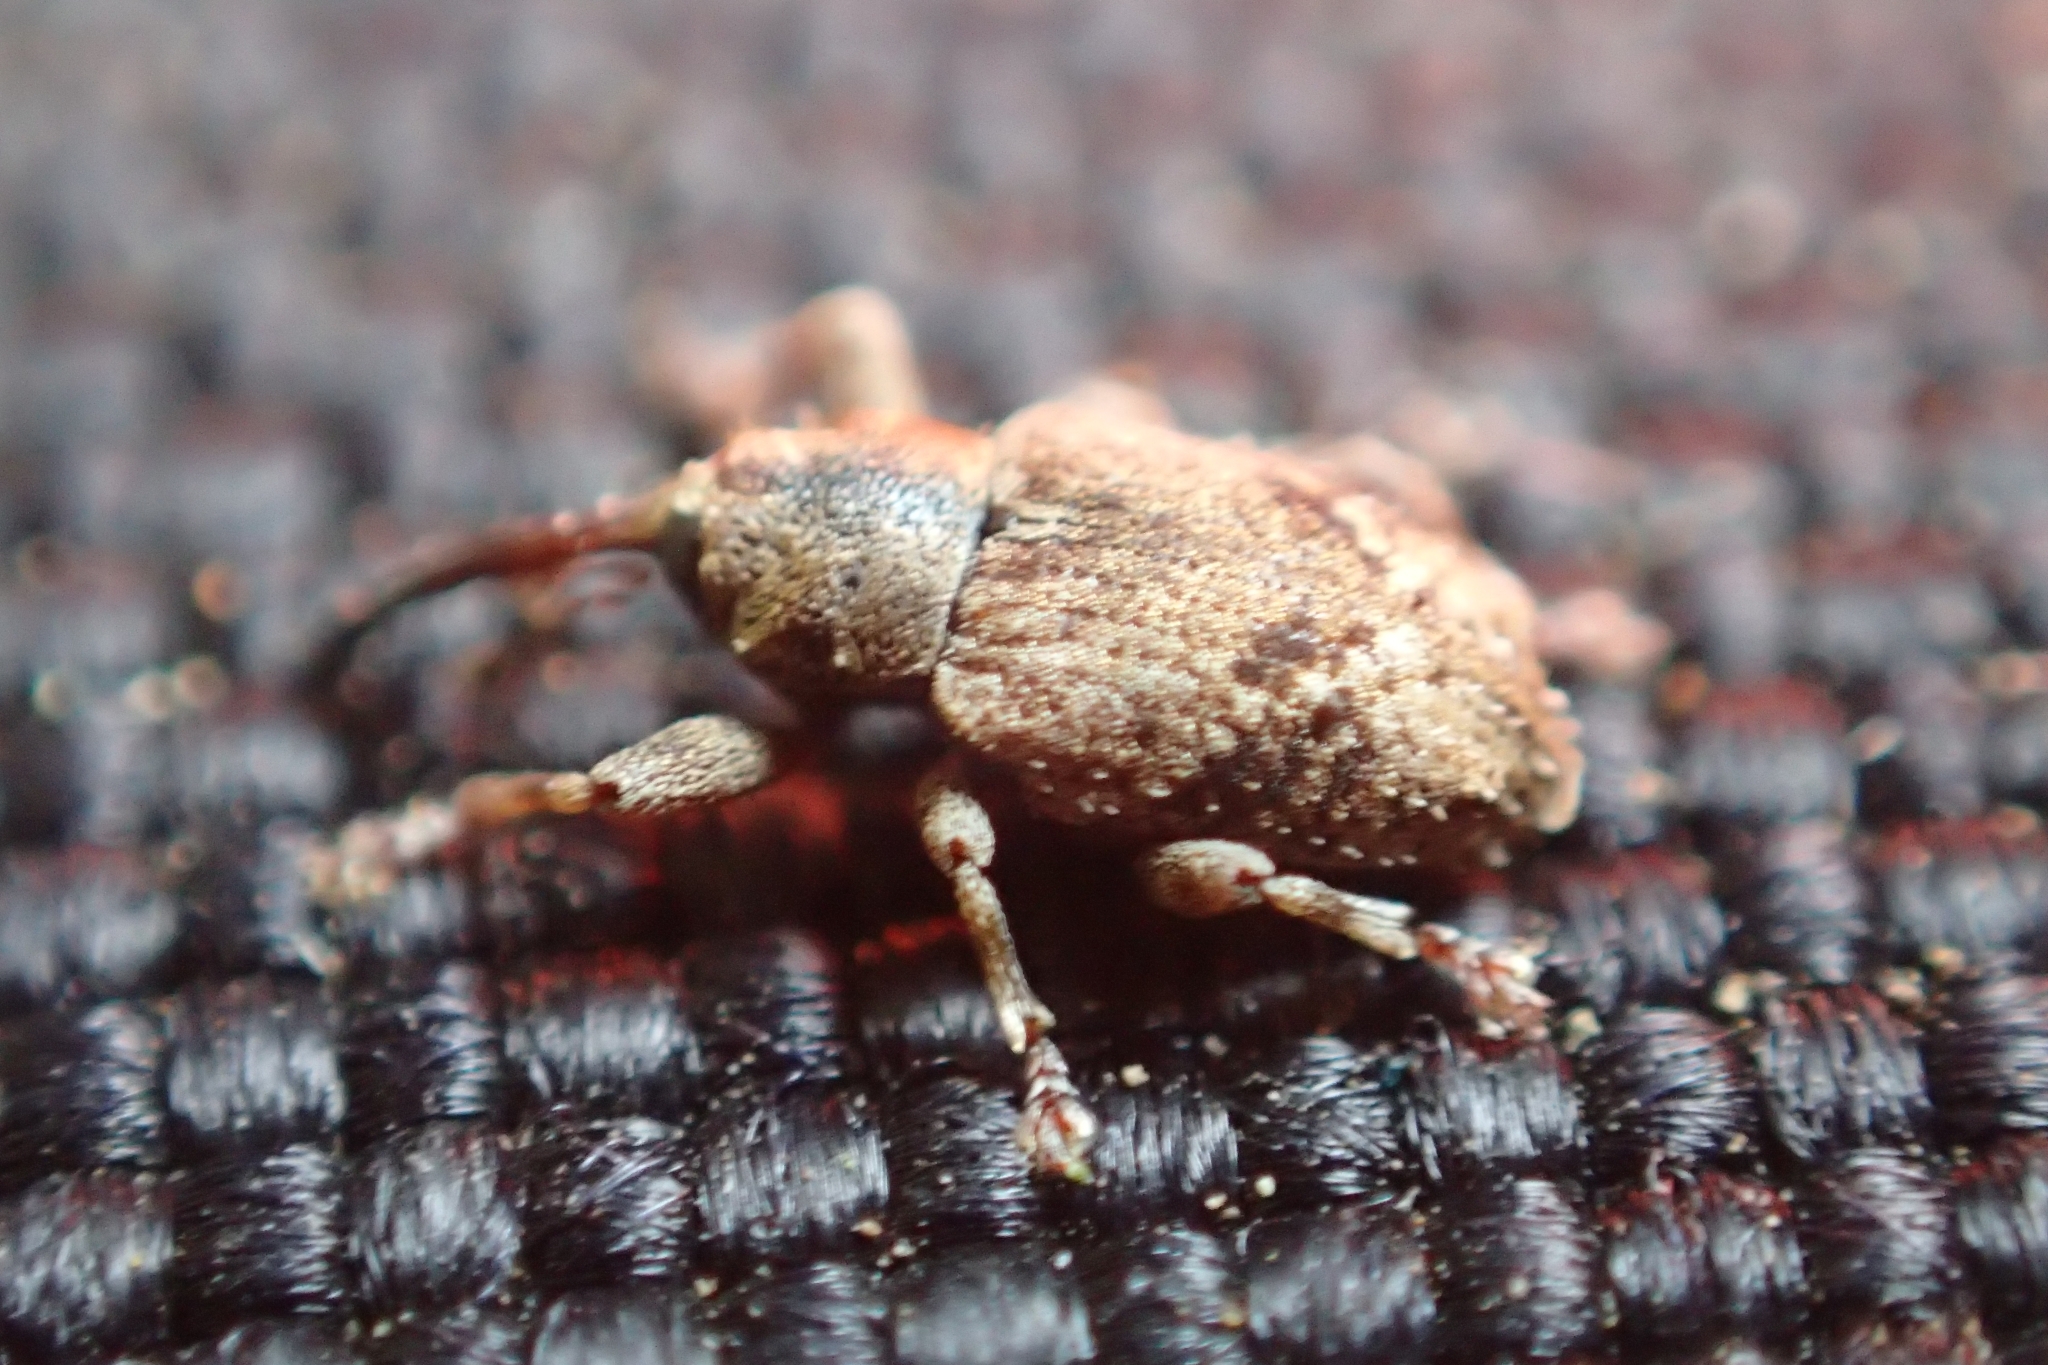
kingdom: Animalia
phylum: Arthropoda
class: Insecta
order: Coleoptera
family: Curculionidae
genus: Praolepra
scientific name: Praolepra infusca
